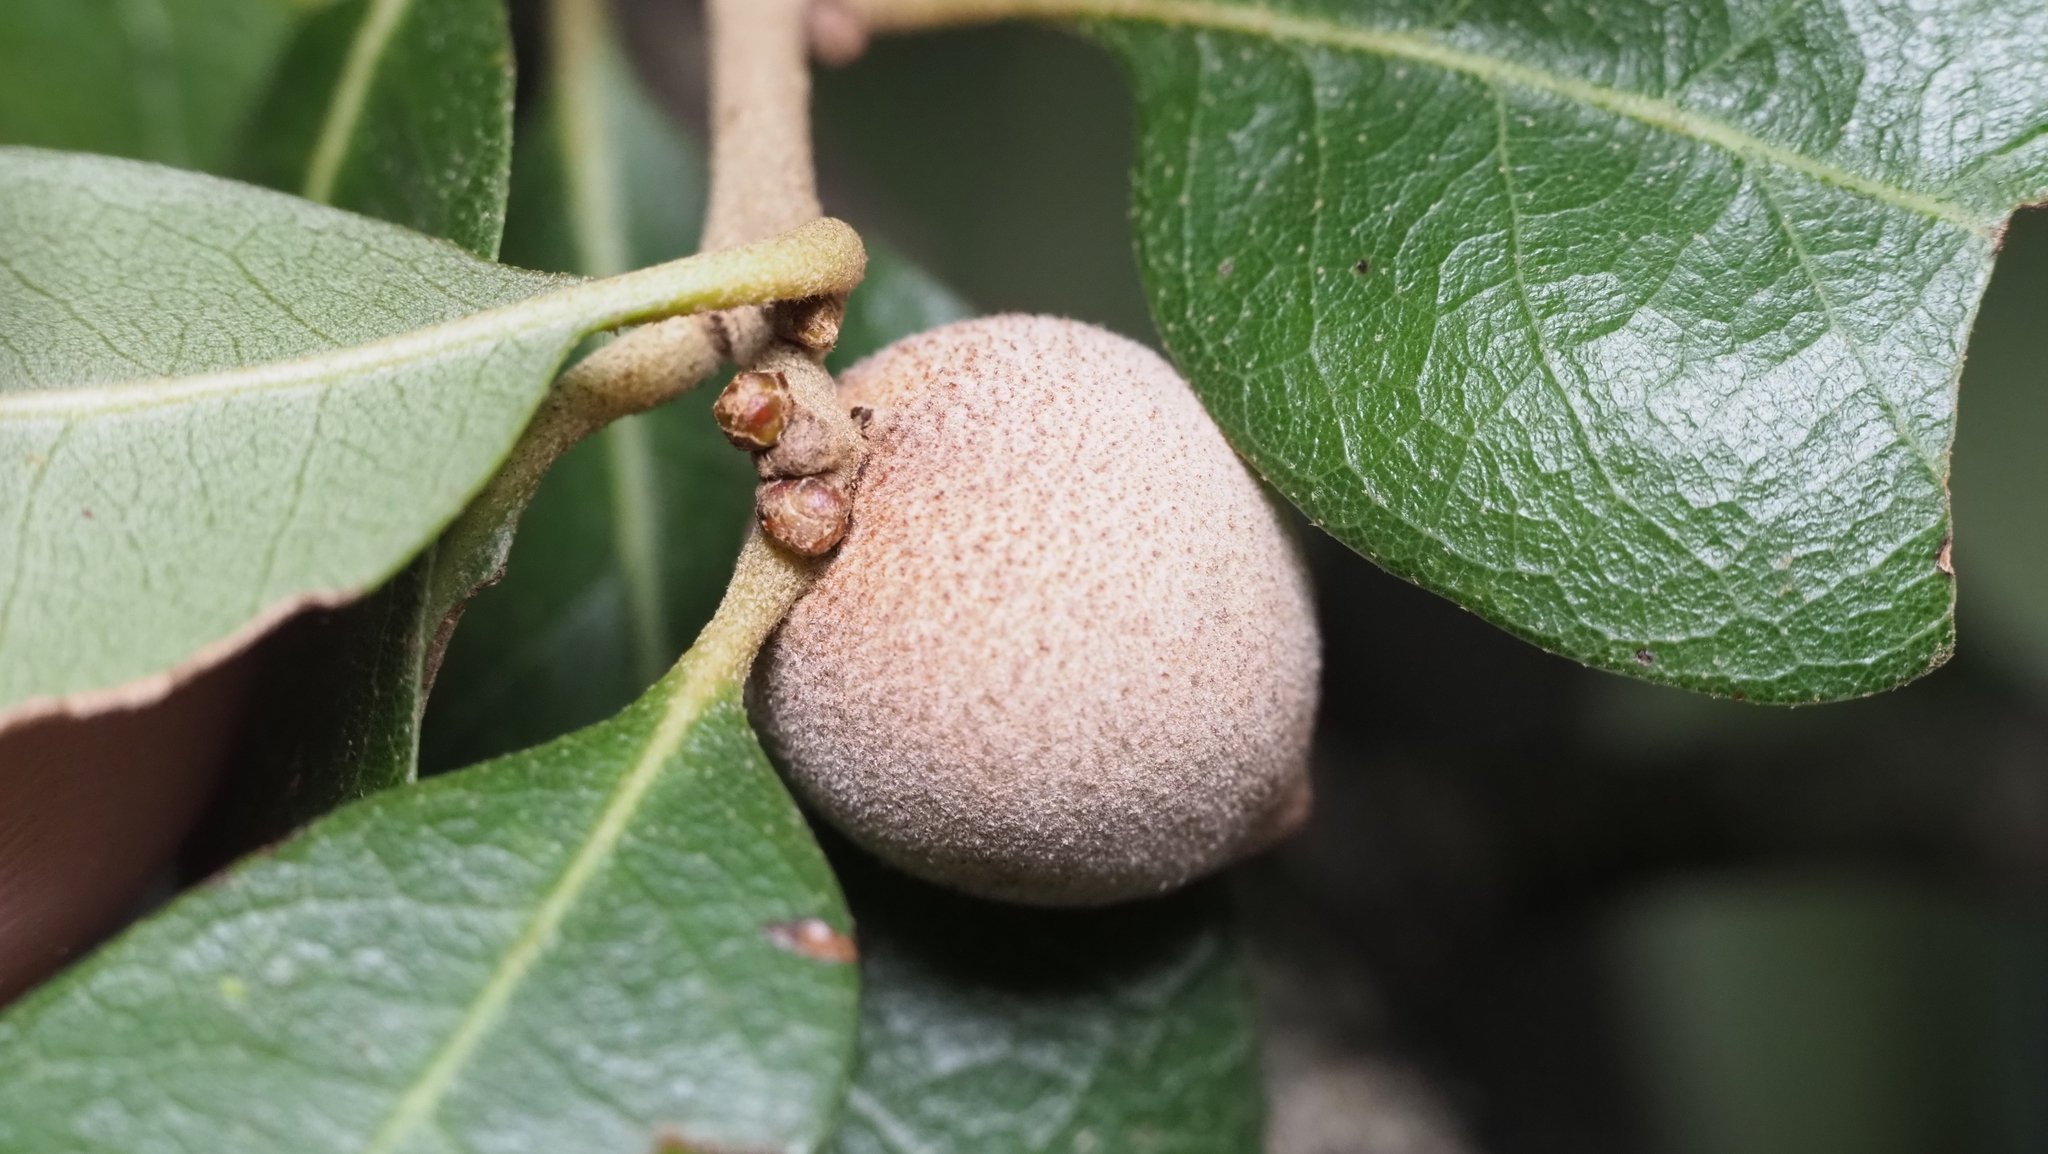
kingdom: Animalia
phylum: Arthropoda
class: Insecta
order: Hymenoptera
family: Cynipidae
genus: Disholcaspis
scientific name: Disholcaspis
